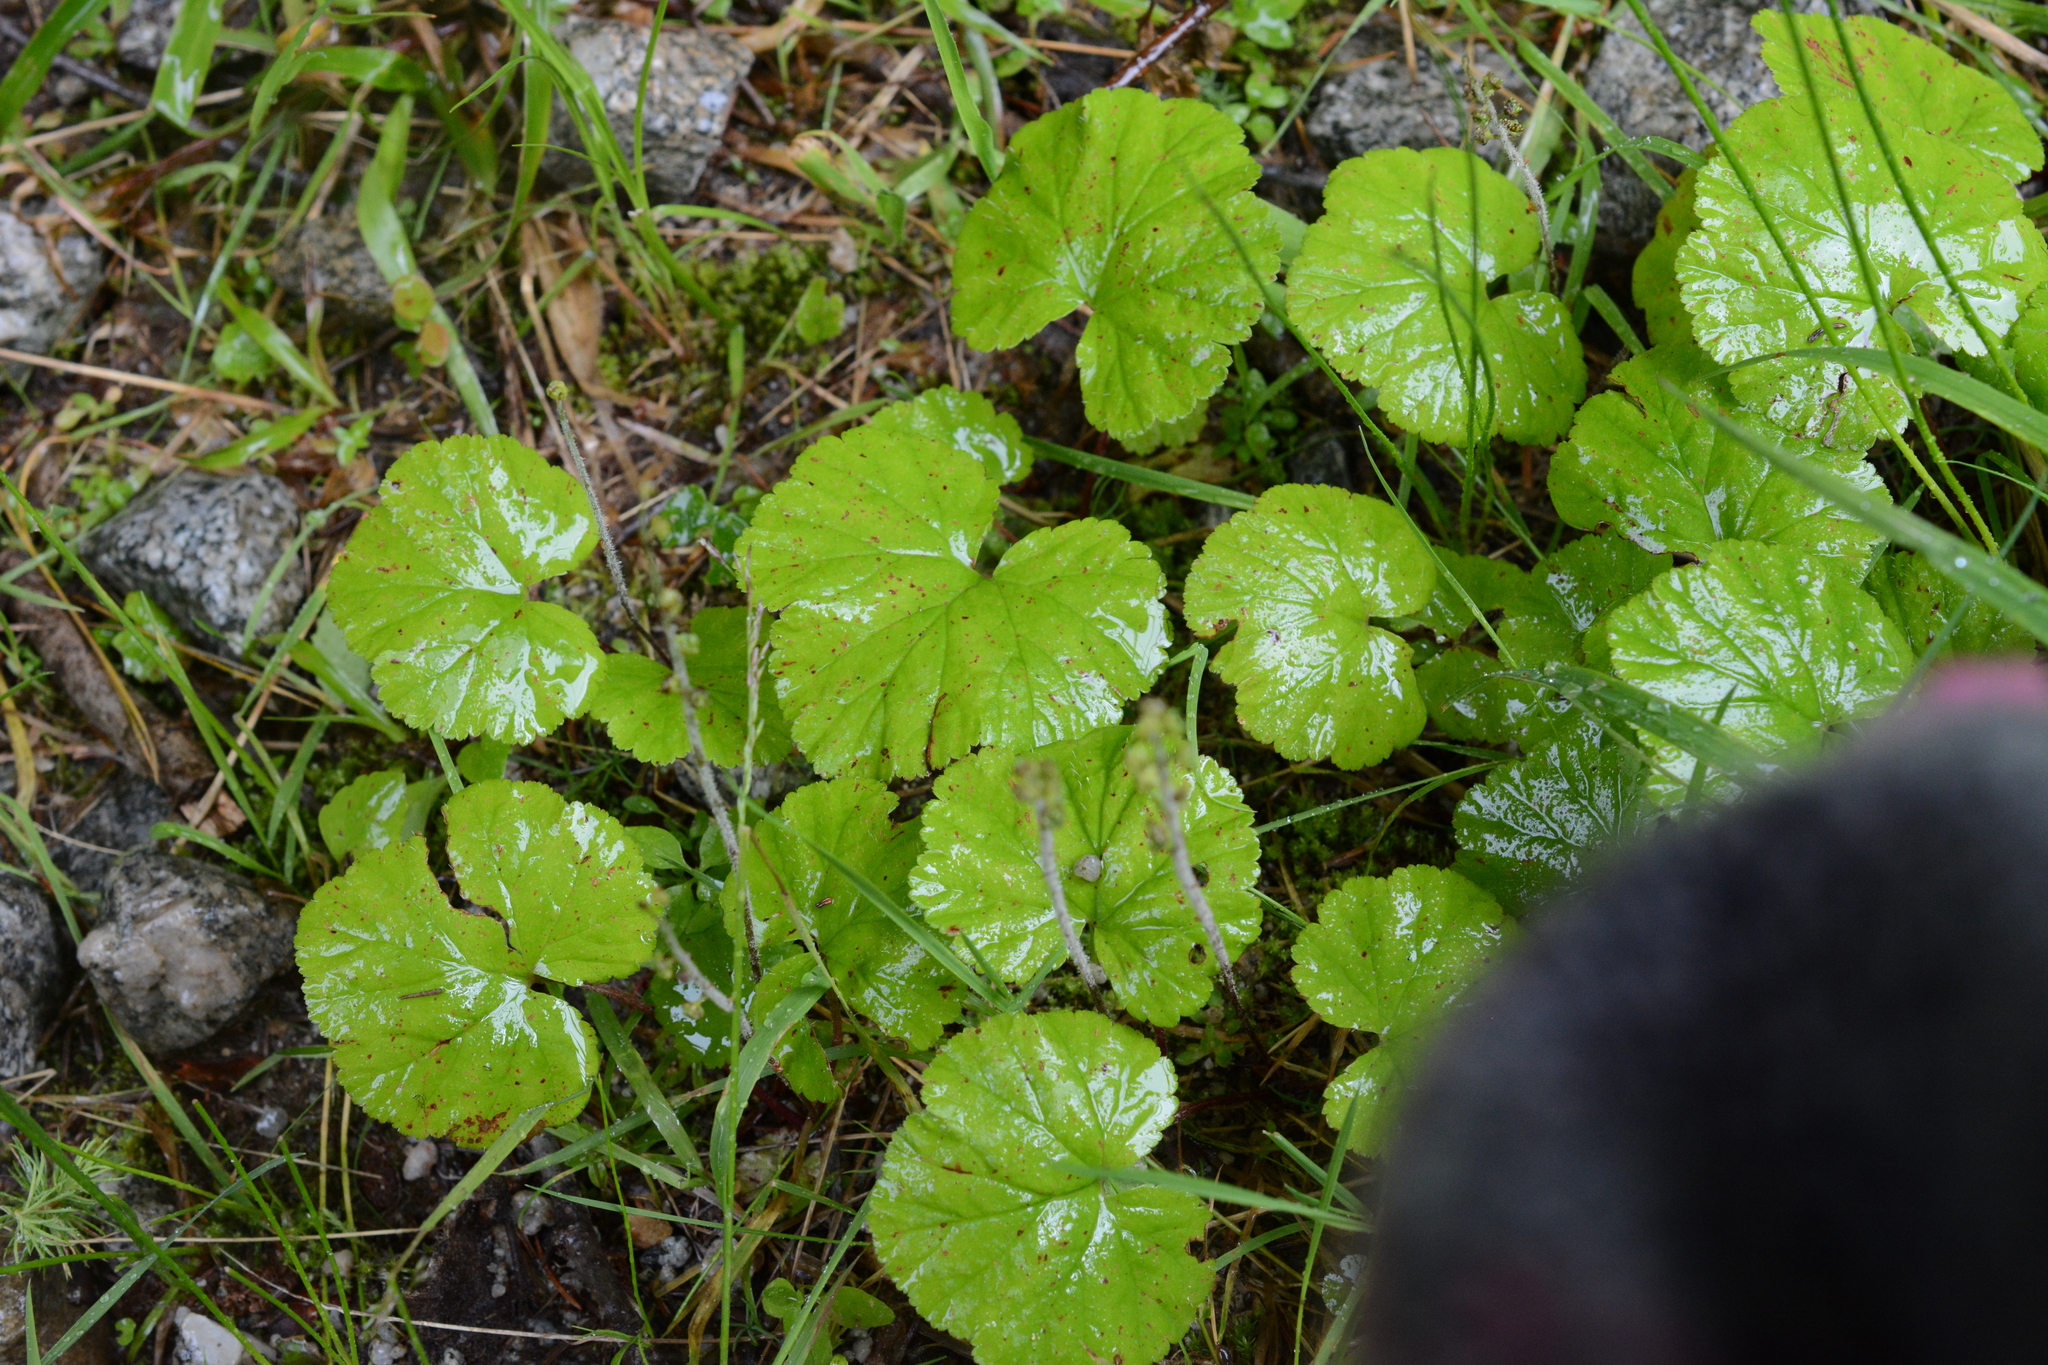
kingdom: Plantae
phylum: Tracheophyta
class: Magnoliopsida
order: Saxifragales
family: Saxifragaceae
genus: Brewerimitella
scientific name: Brewerimitella breweri
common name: Brewer's bishop's-cap
